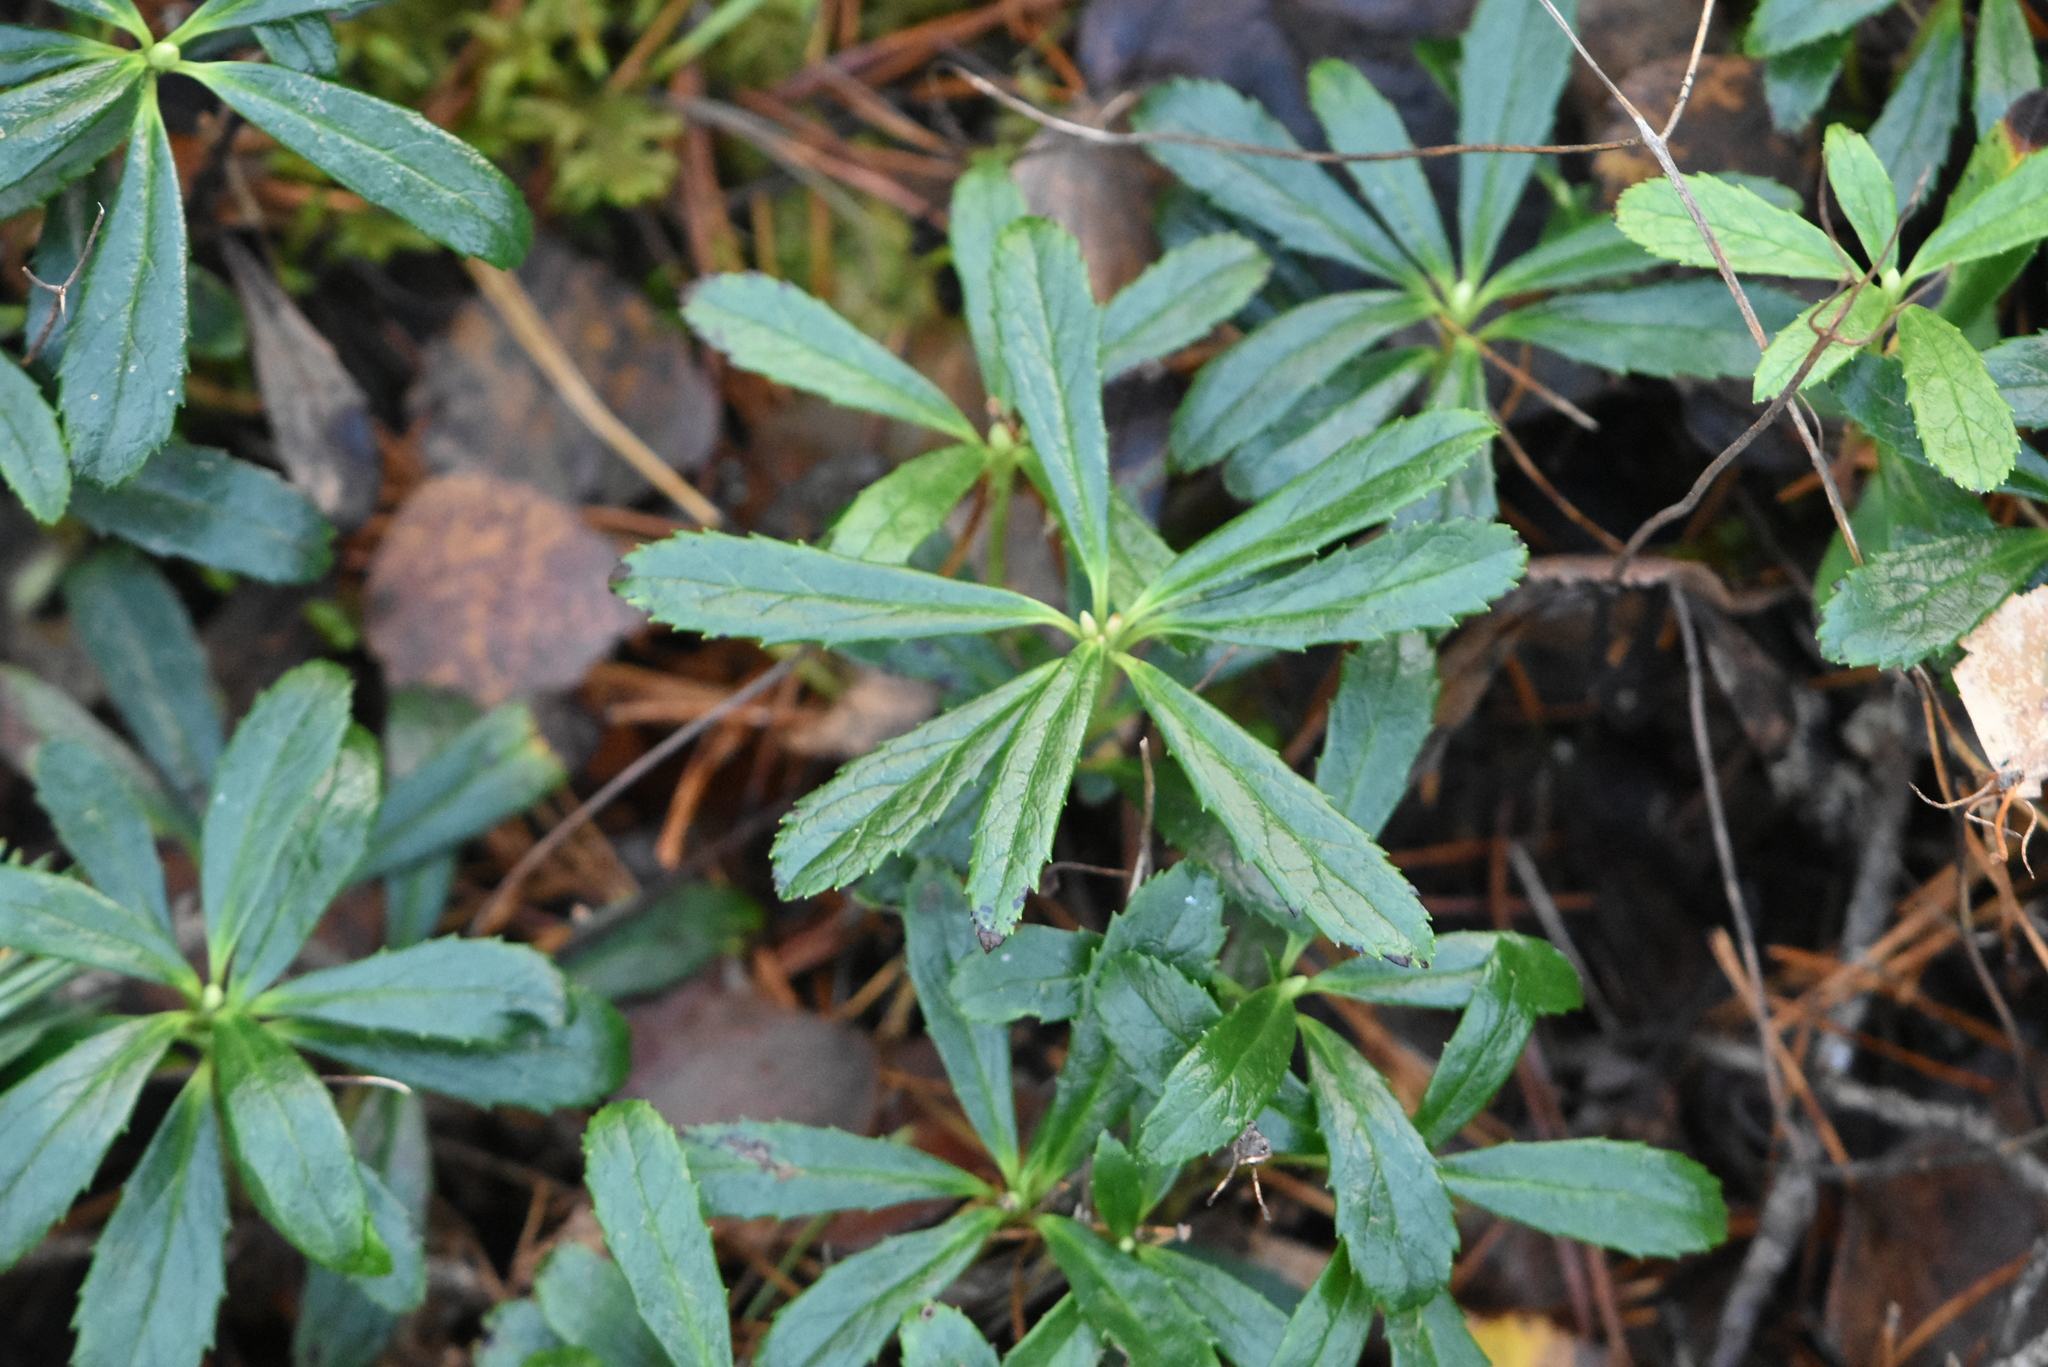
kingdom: Plantae
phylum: Tracheophyta
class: Magnoliopsida
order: Ericales
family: Ericaceae
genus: Chimaphila
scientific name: Chimaphila umbellata
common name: Pipsissewa
